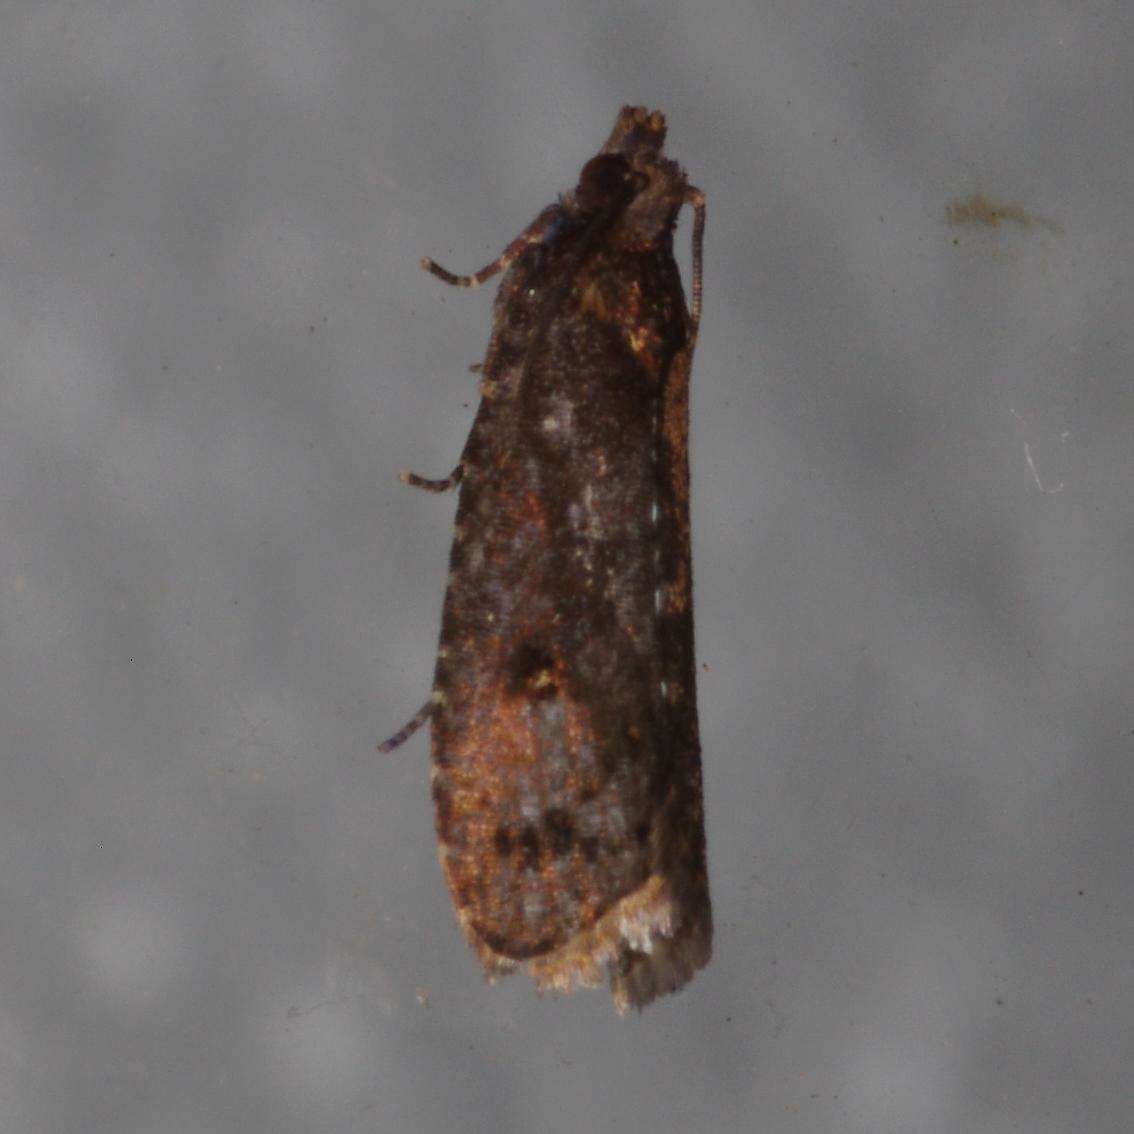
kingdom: Animalia
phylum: Arthropoda
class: Insecta
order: Lepidoptera
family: Tortricidae
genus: Cryptaspasma
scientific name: Cryptaspasma sordida
